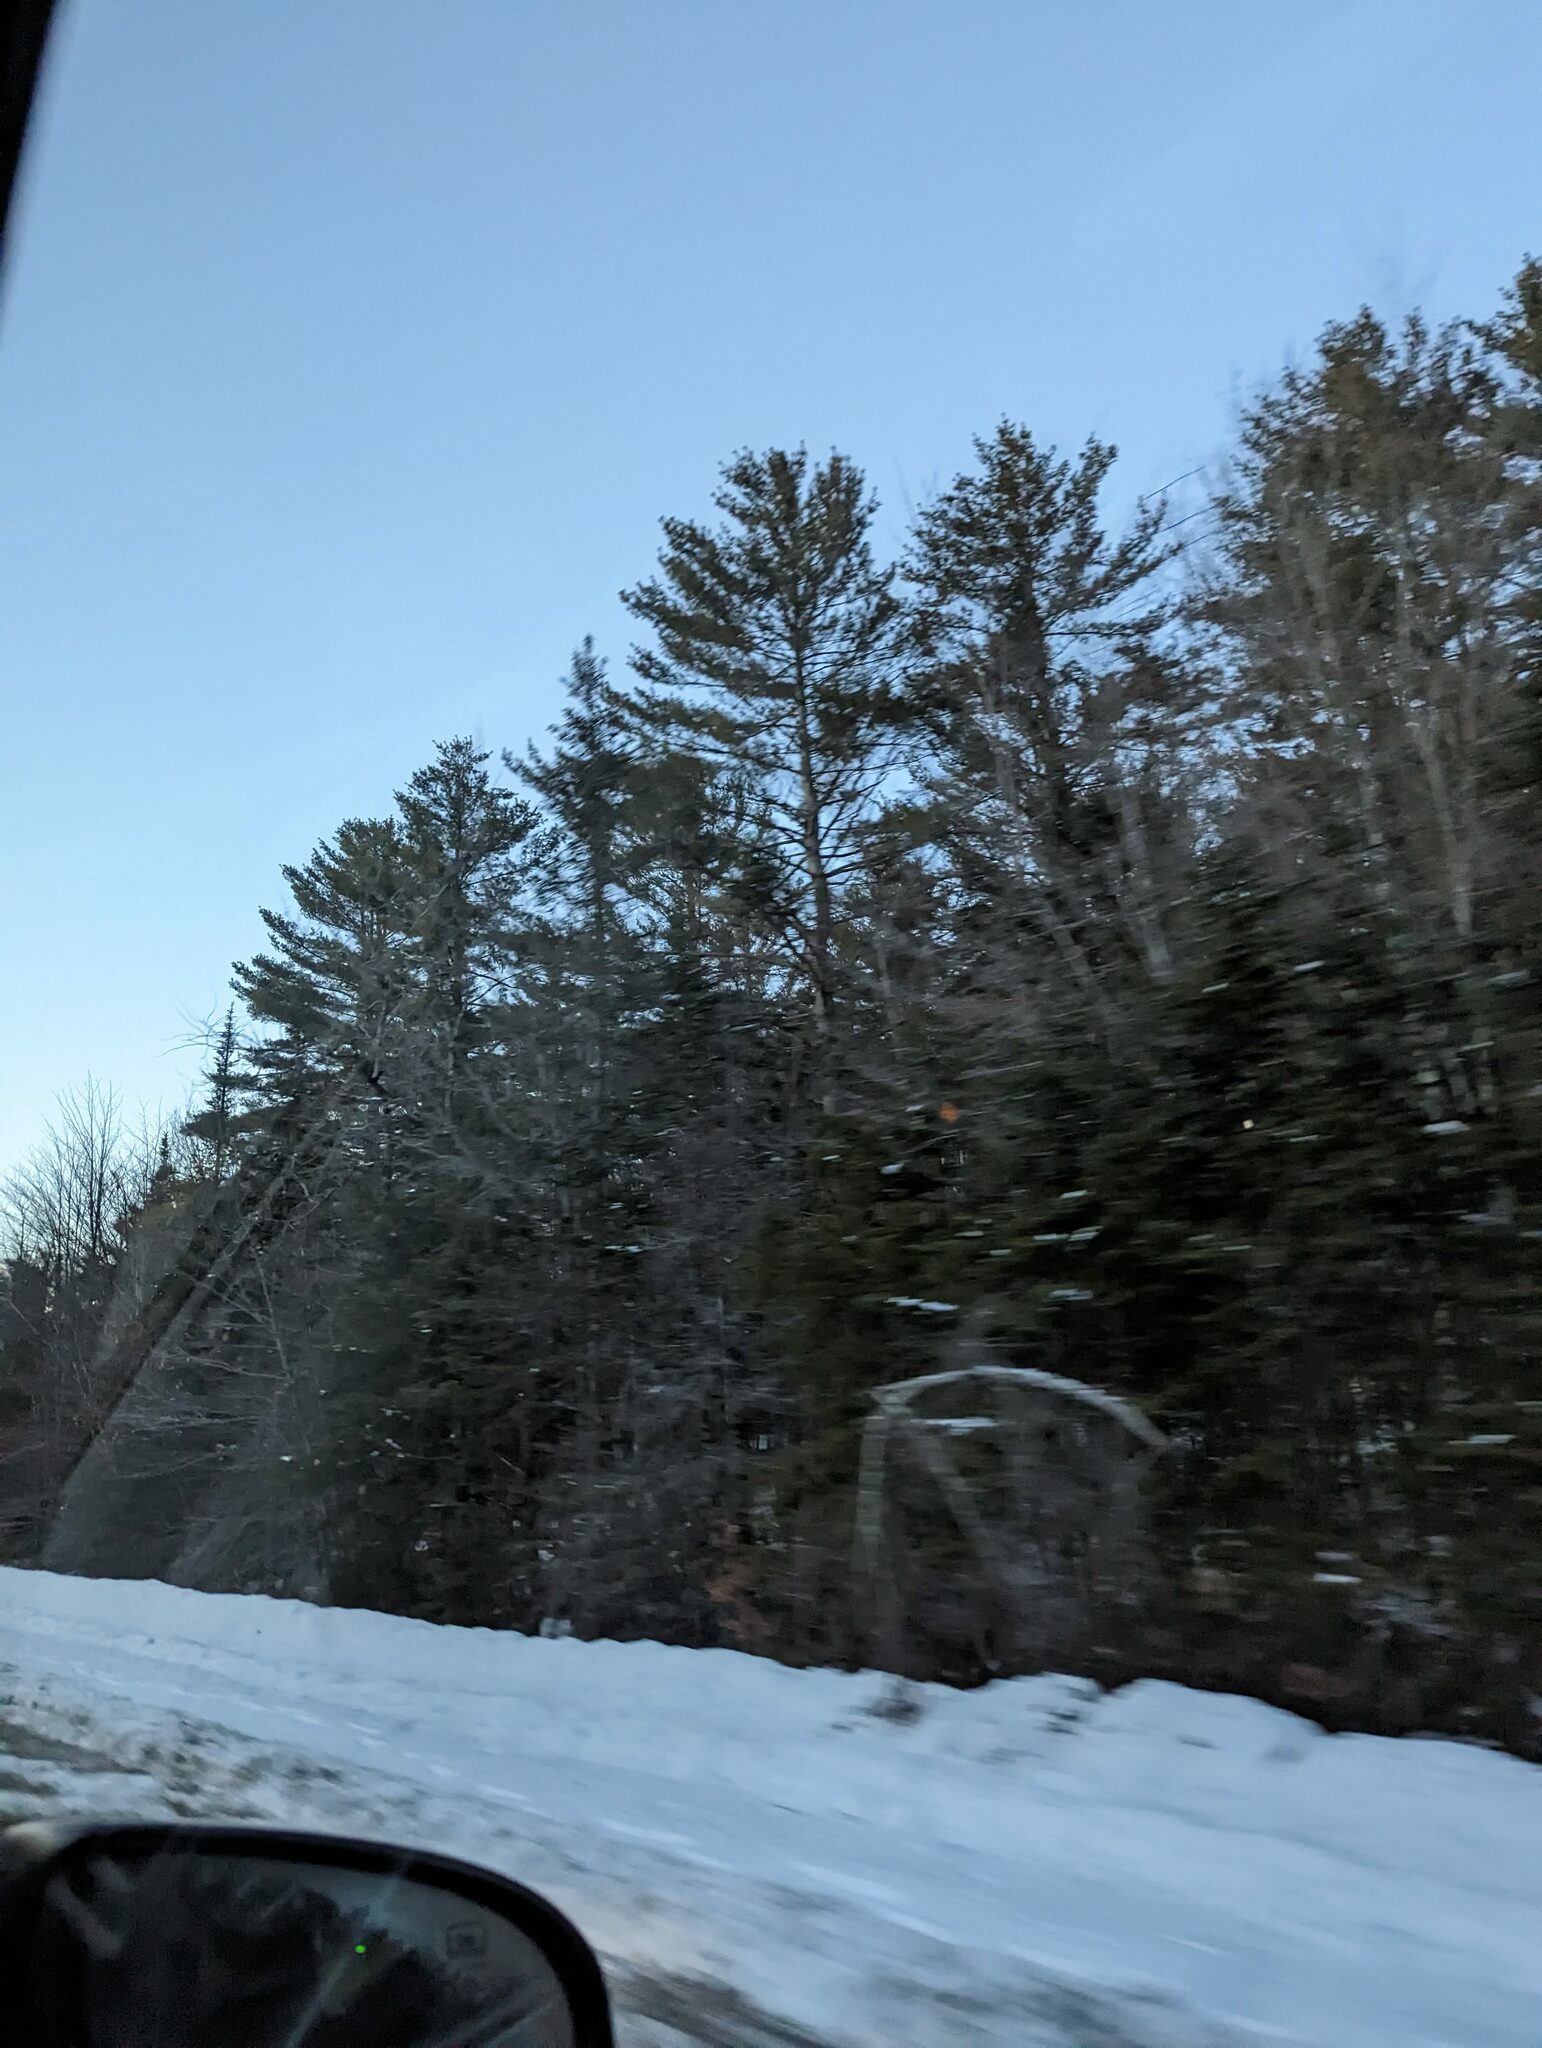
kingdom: Plantae
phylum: Tracheophyta
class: Pinopsida
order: Pinales
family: Pinaceae
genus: Pinus
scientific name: Pinus strobus
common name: Weymouth pine
